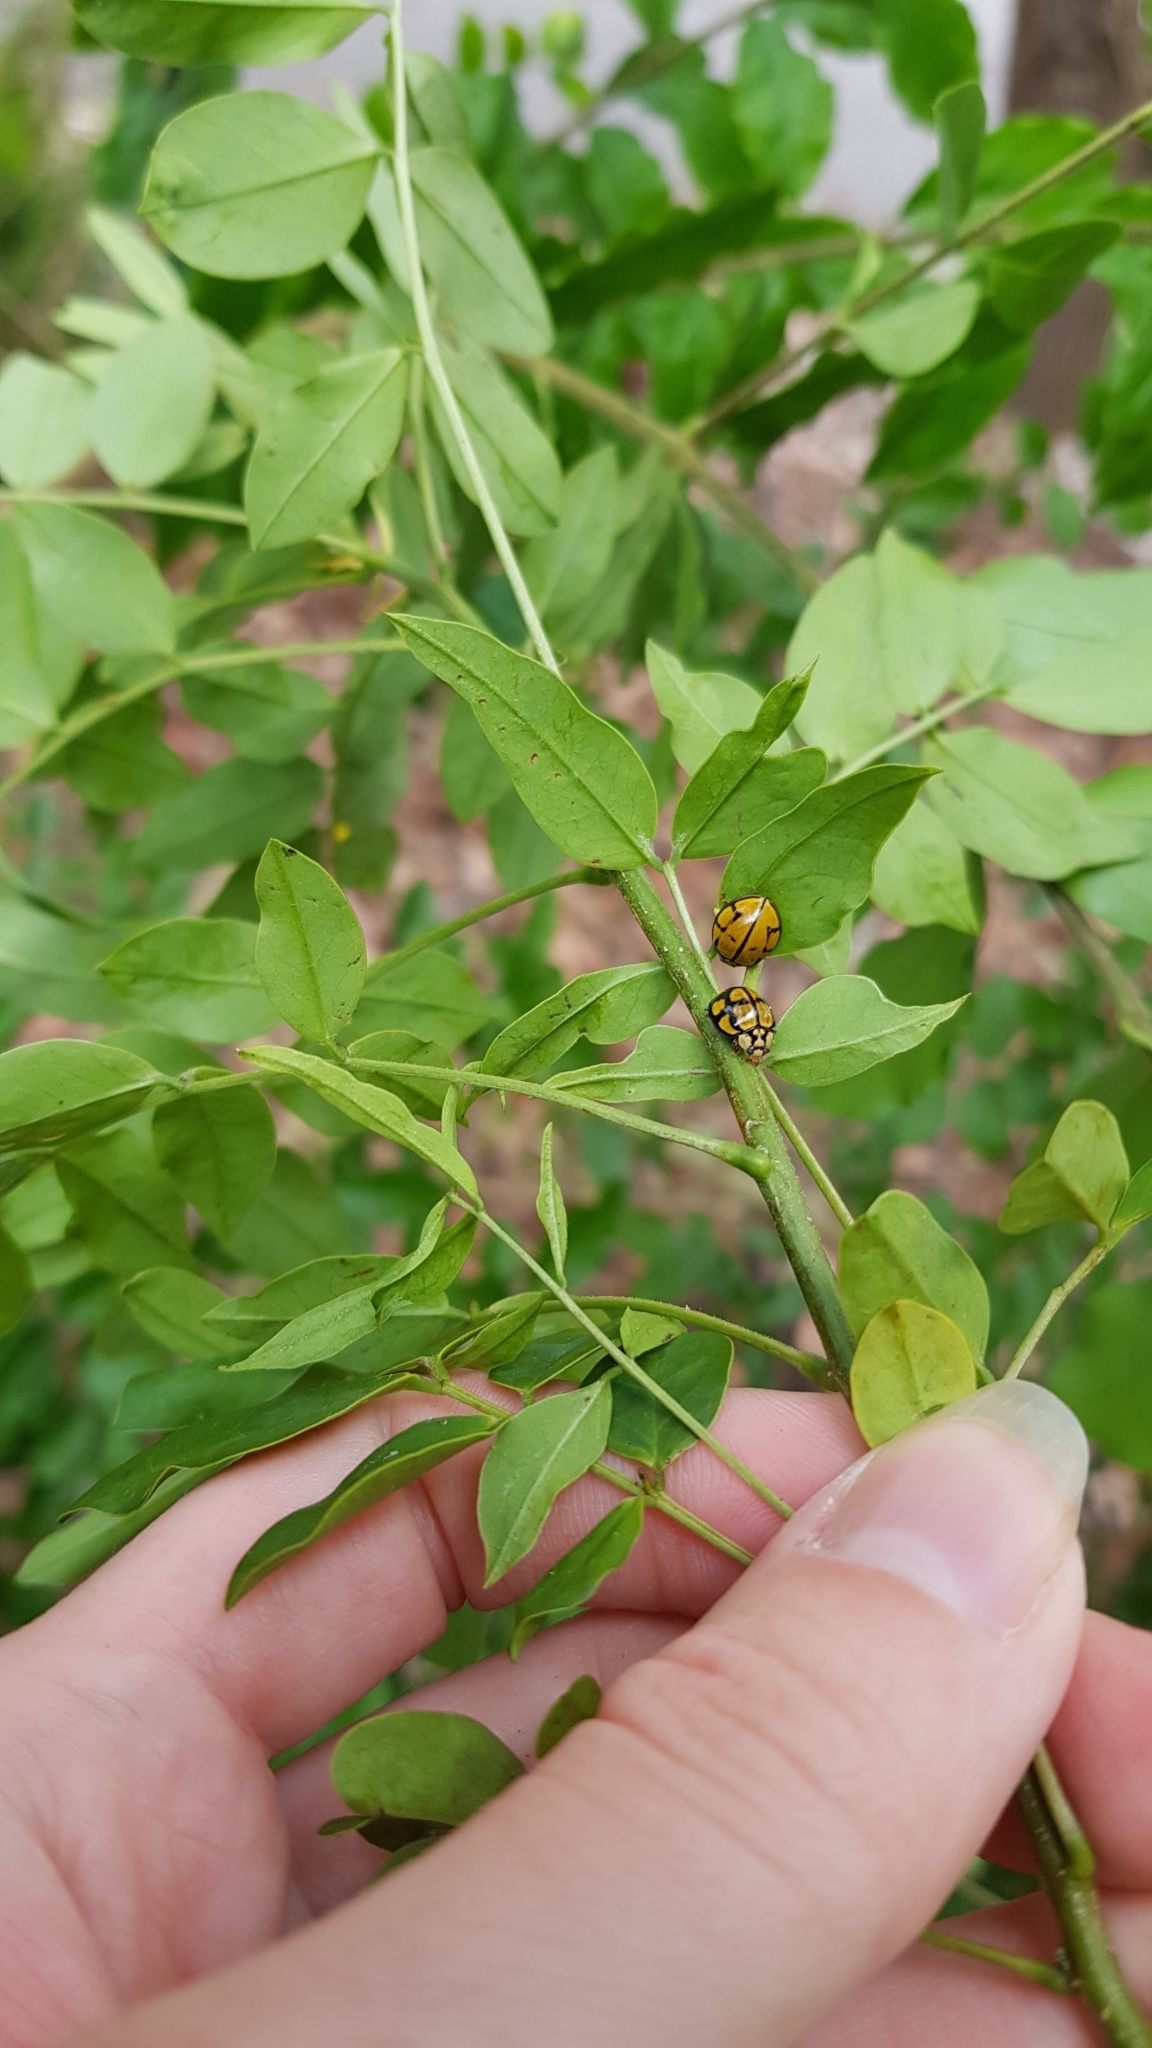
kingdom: Animalia
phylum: Arthropoda
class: Insecta
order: Coleoptera
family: Coccinellidae
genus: Harmonia
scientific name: Harmonia
